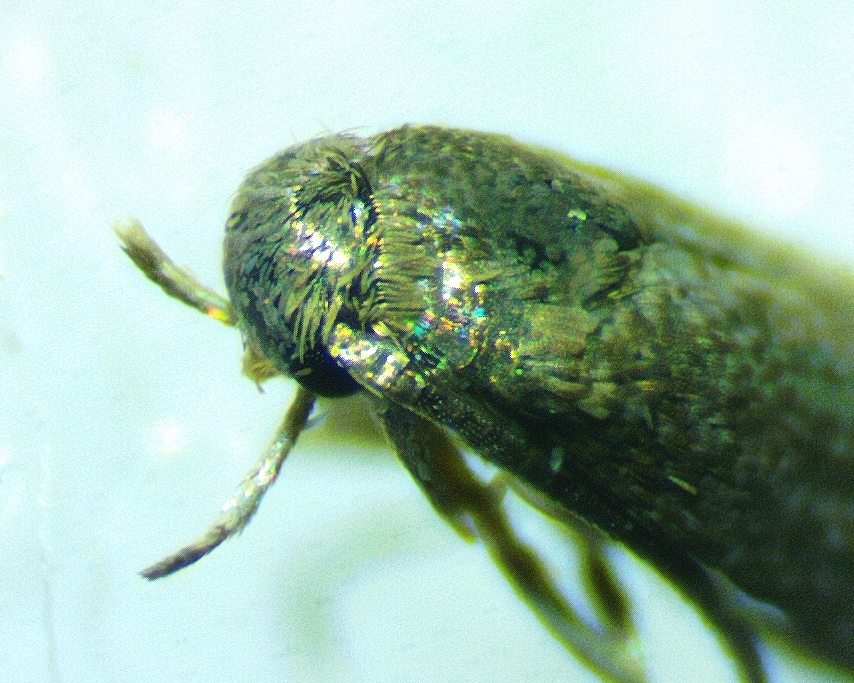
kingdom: Animalia
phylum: Arthropoda
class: Insecta
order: Lepidoptera
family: Elachistidae
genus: Elachista
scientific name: Elachista illectella
